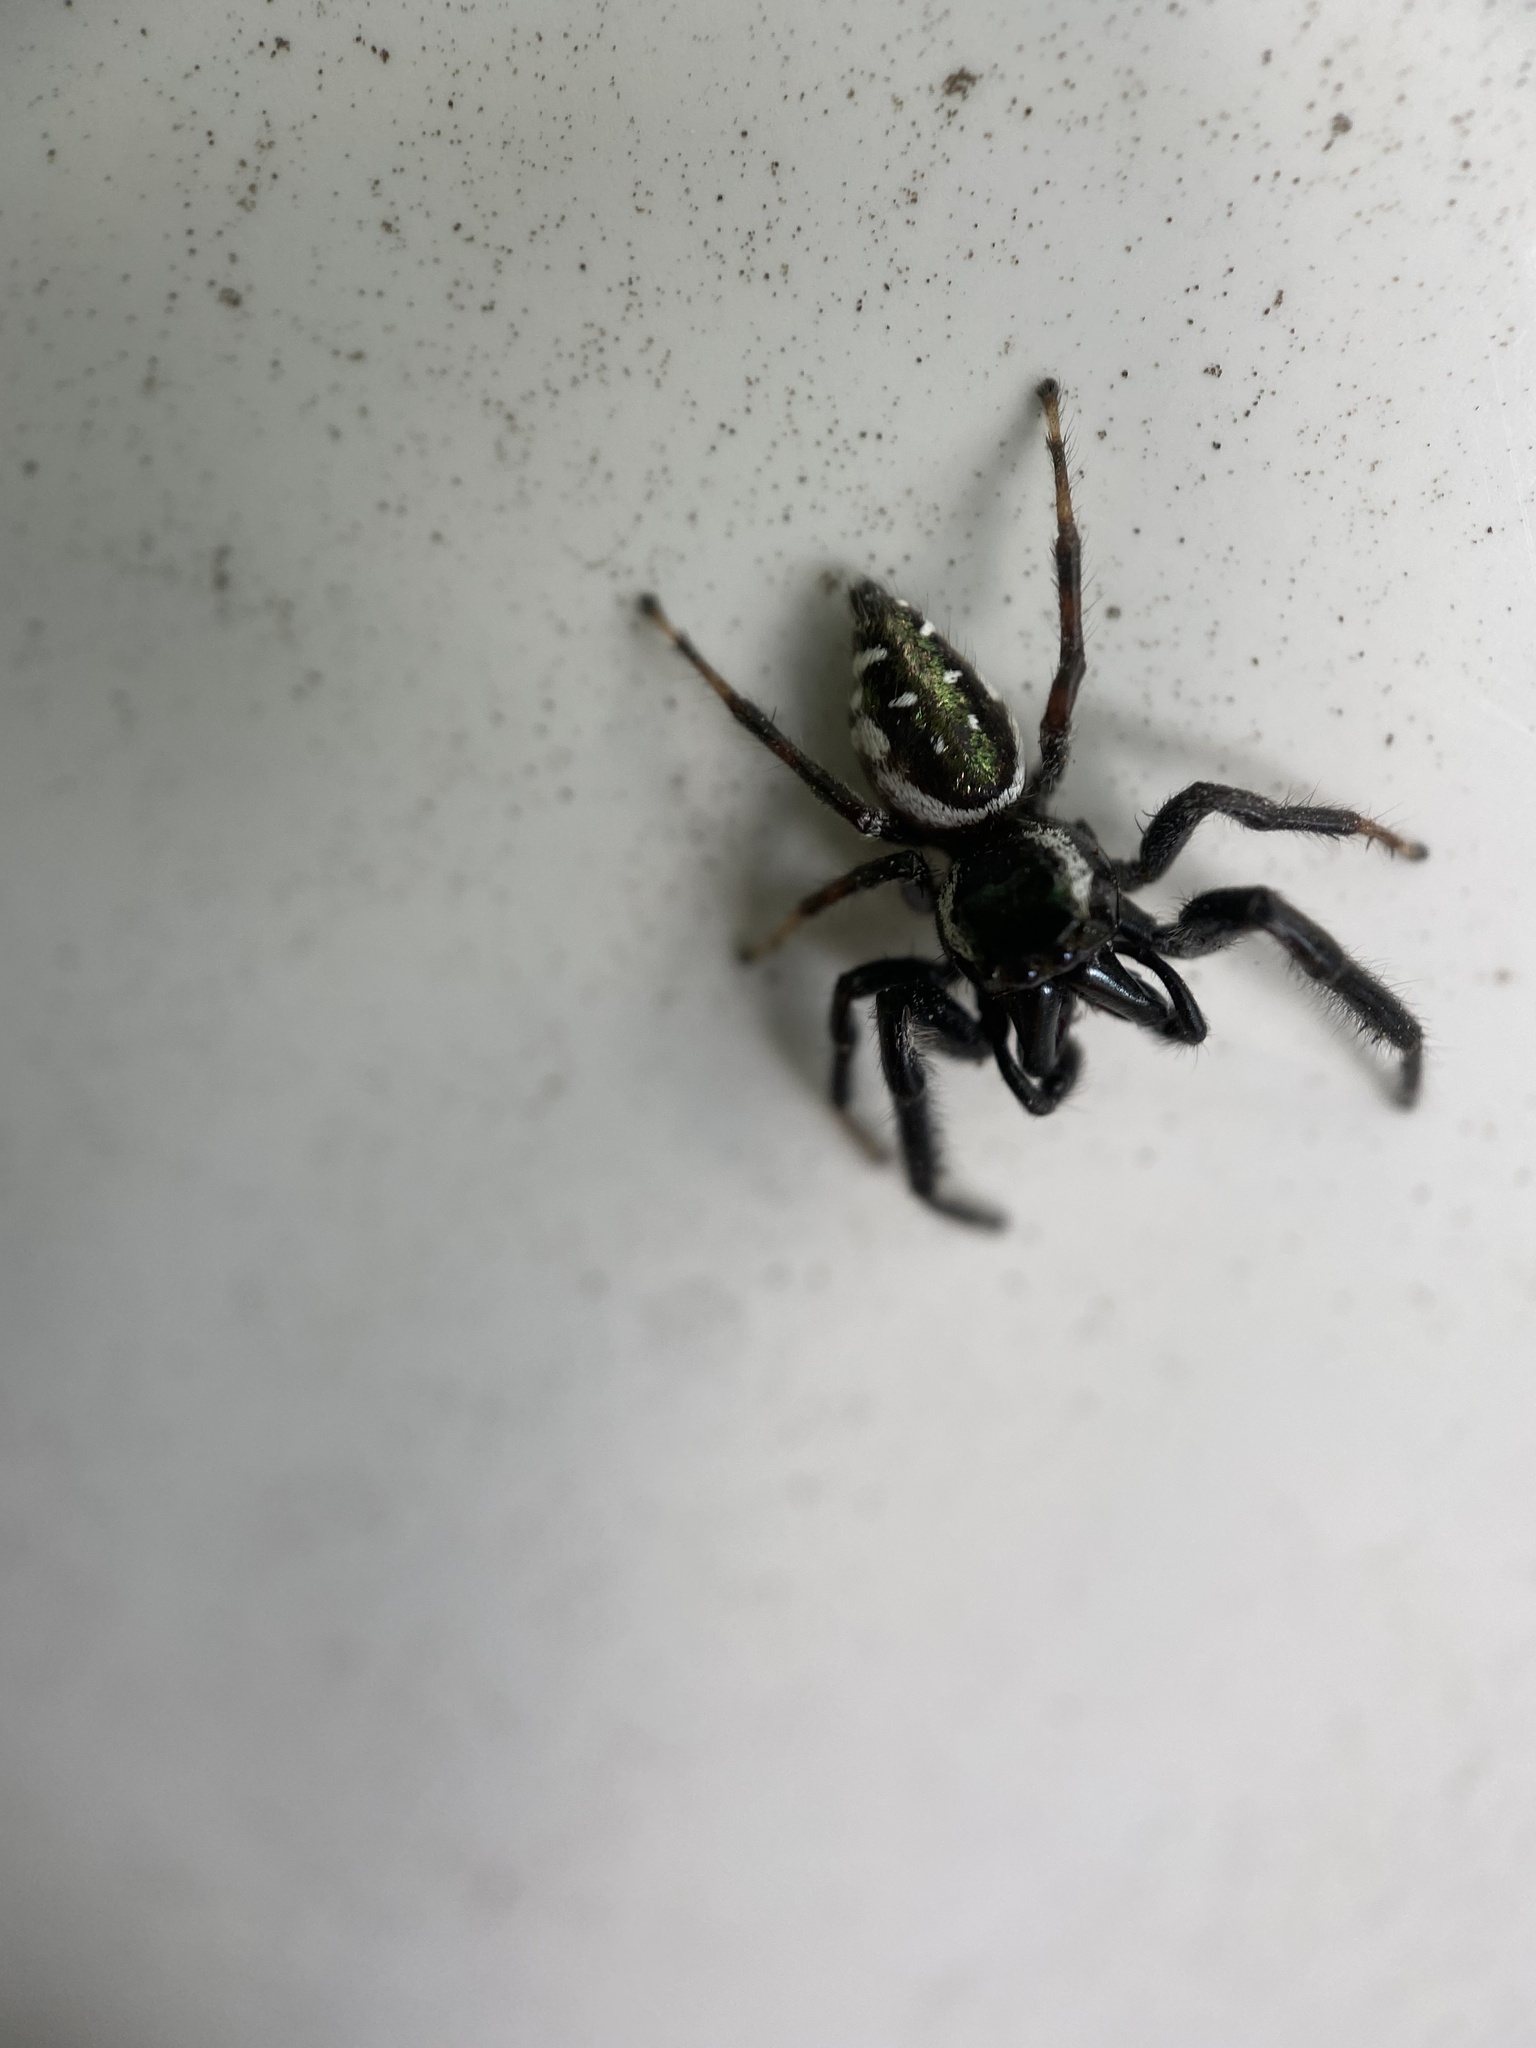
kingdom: Animalia
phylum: Arthropoda
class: Arachnida
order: Araneae
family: Salticidae
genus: Paraphidippus
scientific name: Paraphidippus aurantius
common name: Jumping spiders
